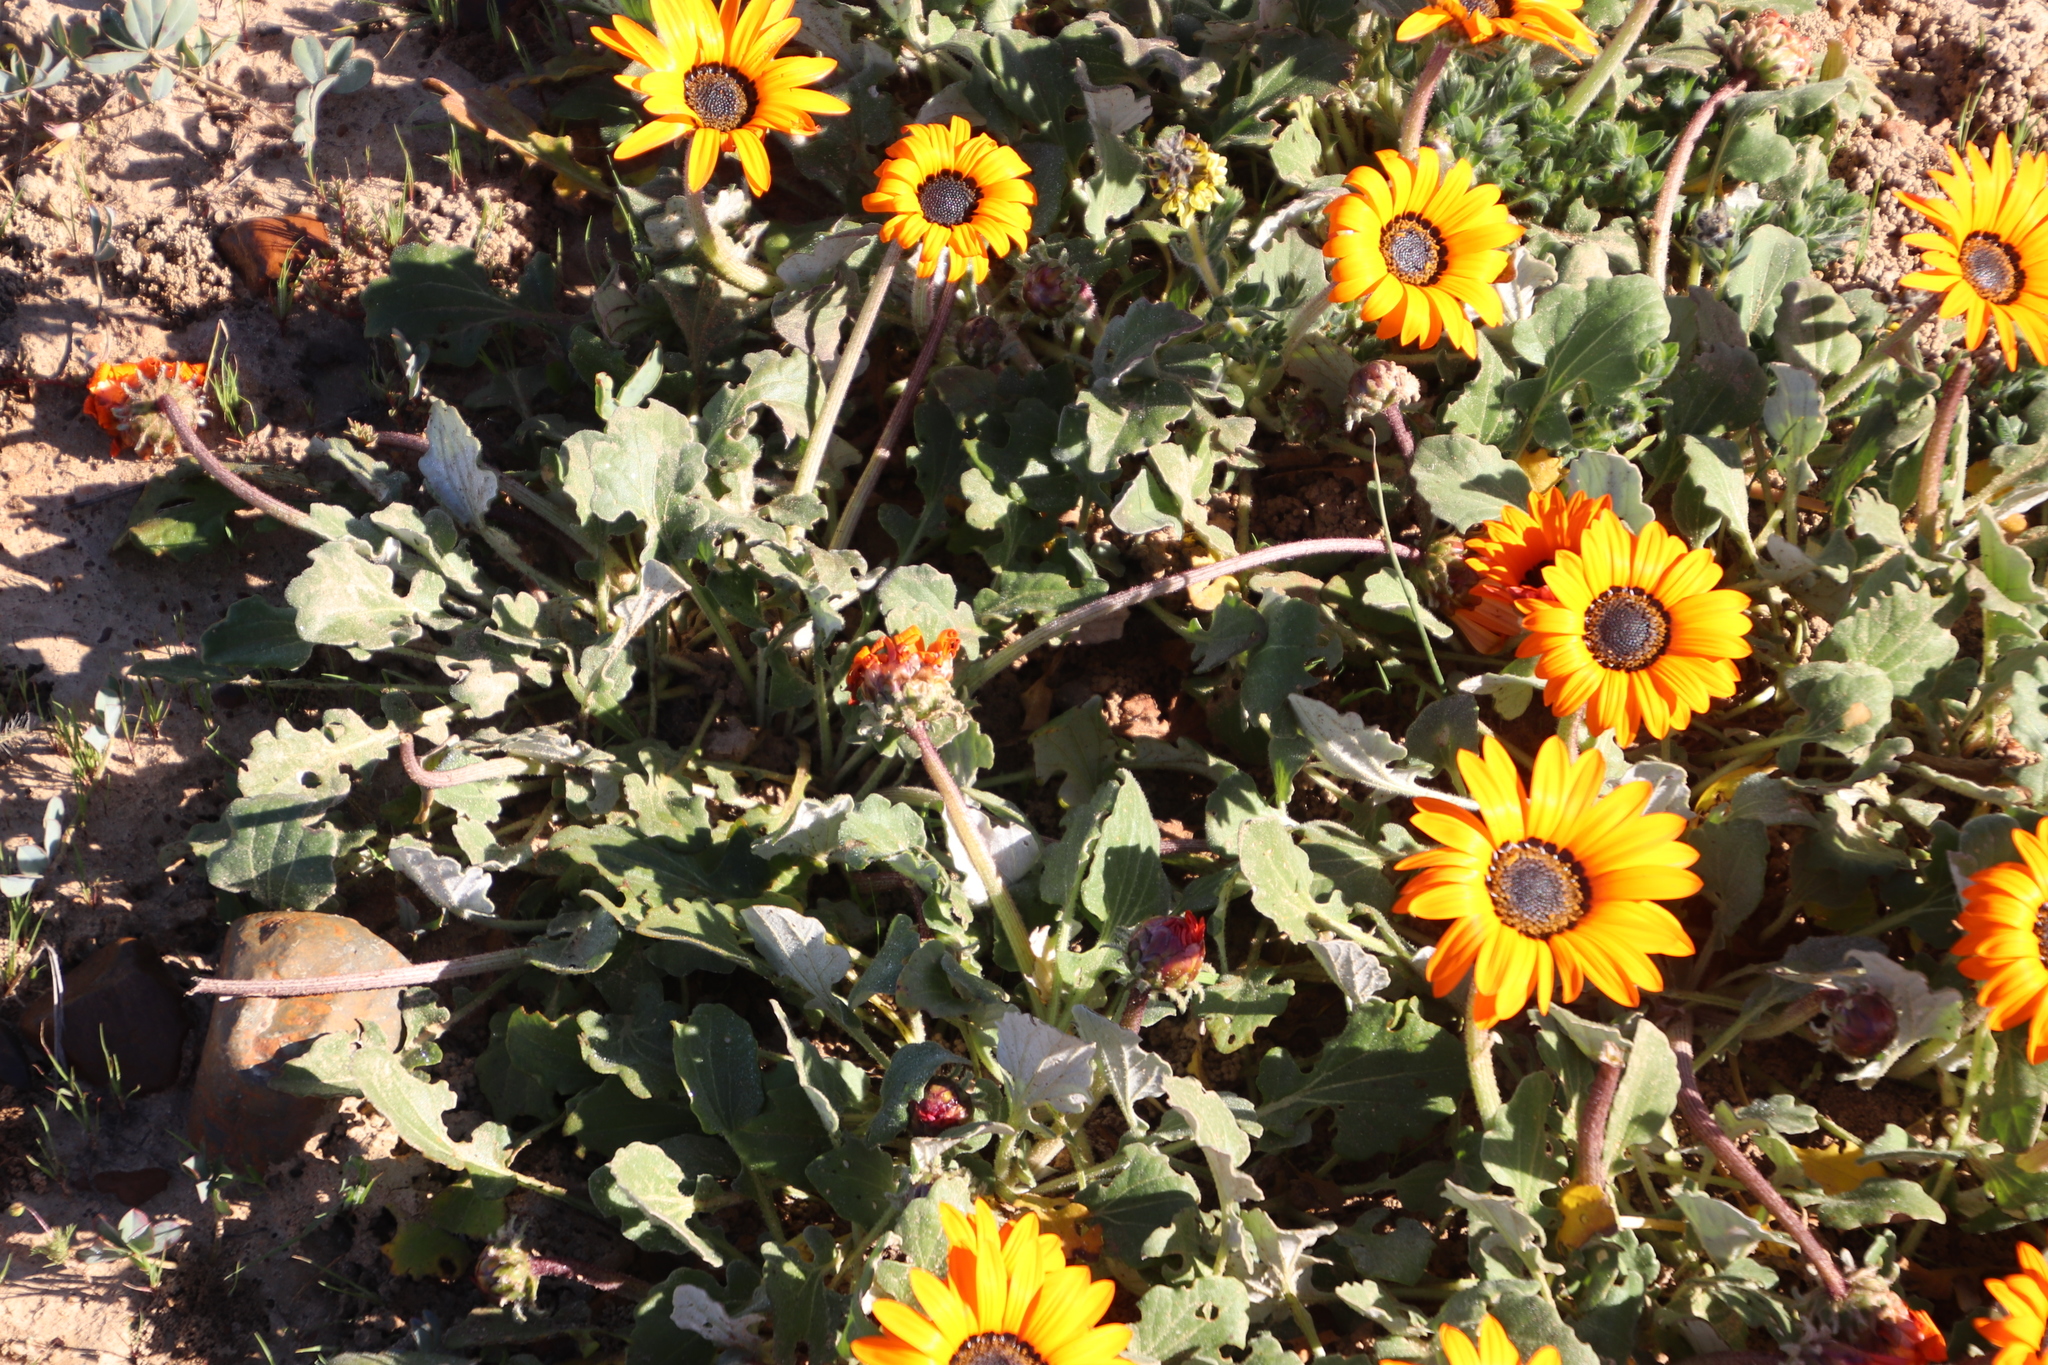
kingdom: Plantae
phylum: Tracheophyta
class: Magnoliopsida
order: Asterales
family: Asteraceae
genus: Arctotis
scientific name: Arctotis acaulis
